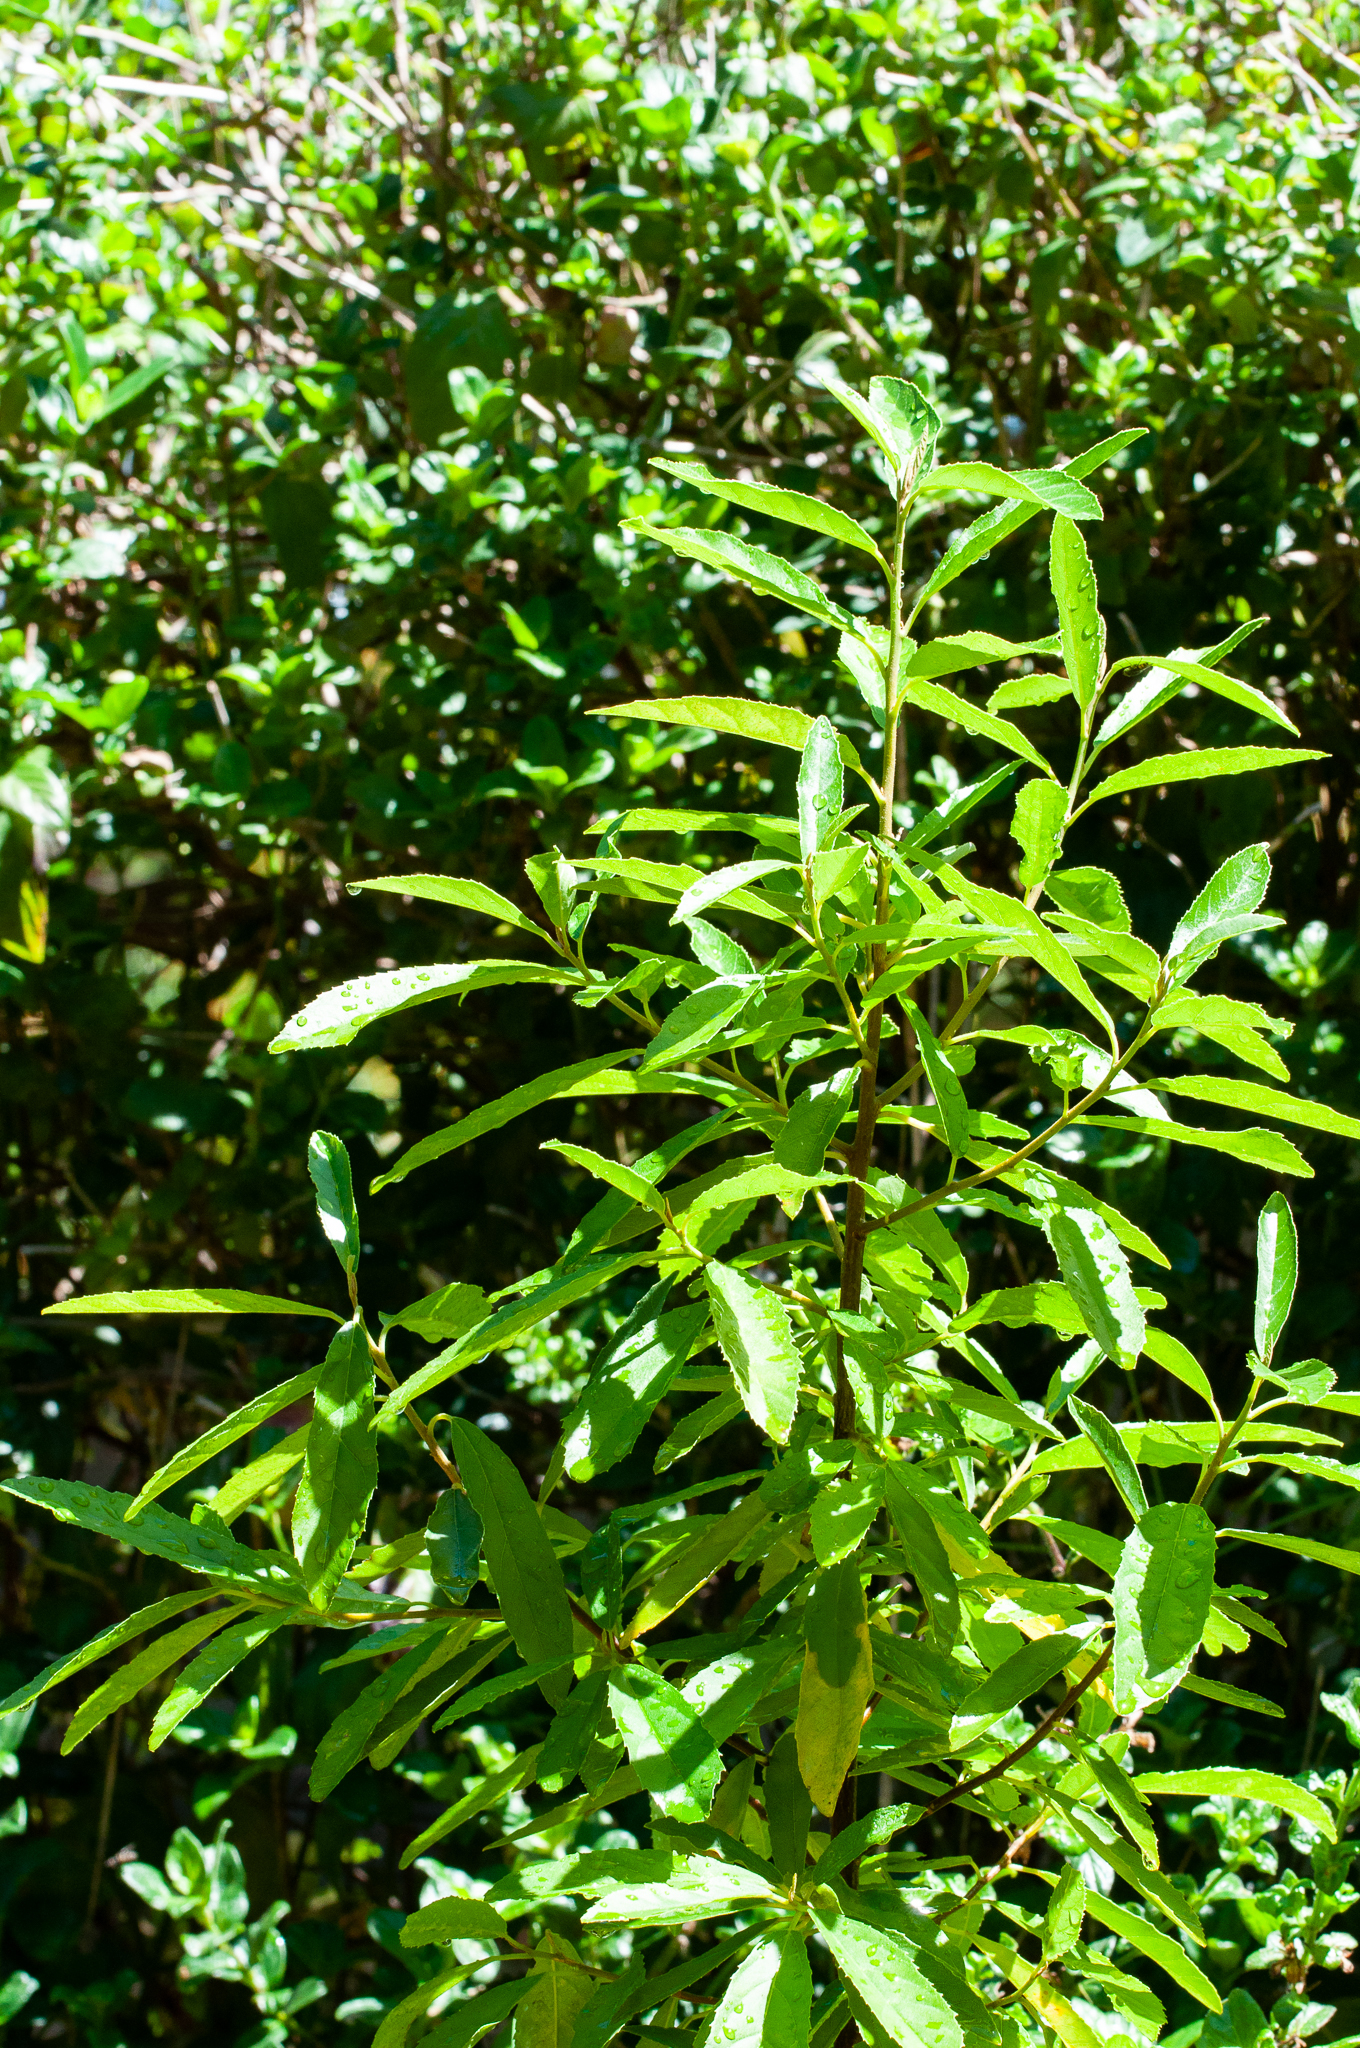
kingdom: Plantae
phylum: Tracheophyta
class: Magnoliopsida
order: Malpighiales
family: Achariaceae
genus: Kiggelaria
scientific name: Kiggelaria africana
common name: Wild peach
